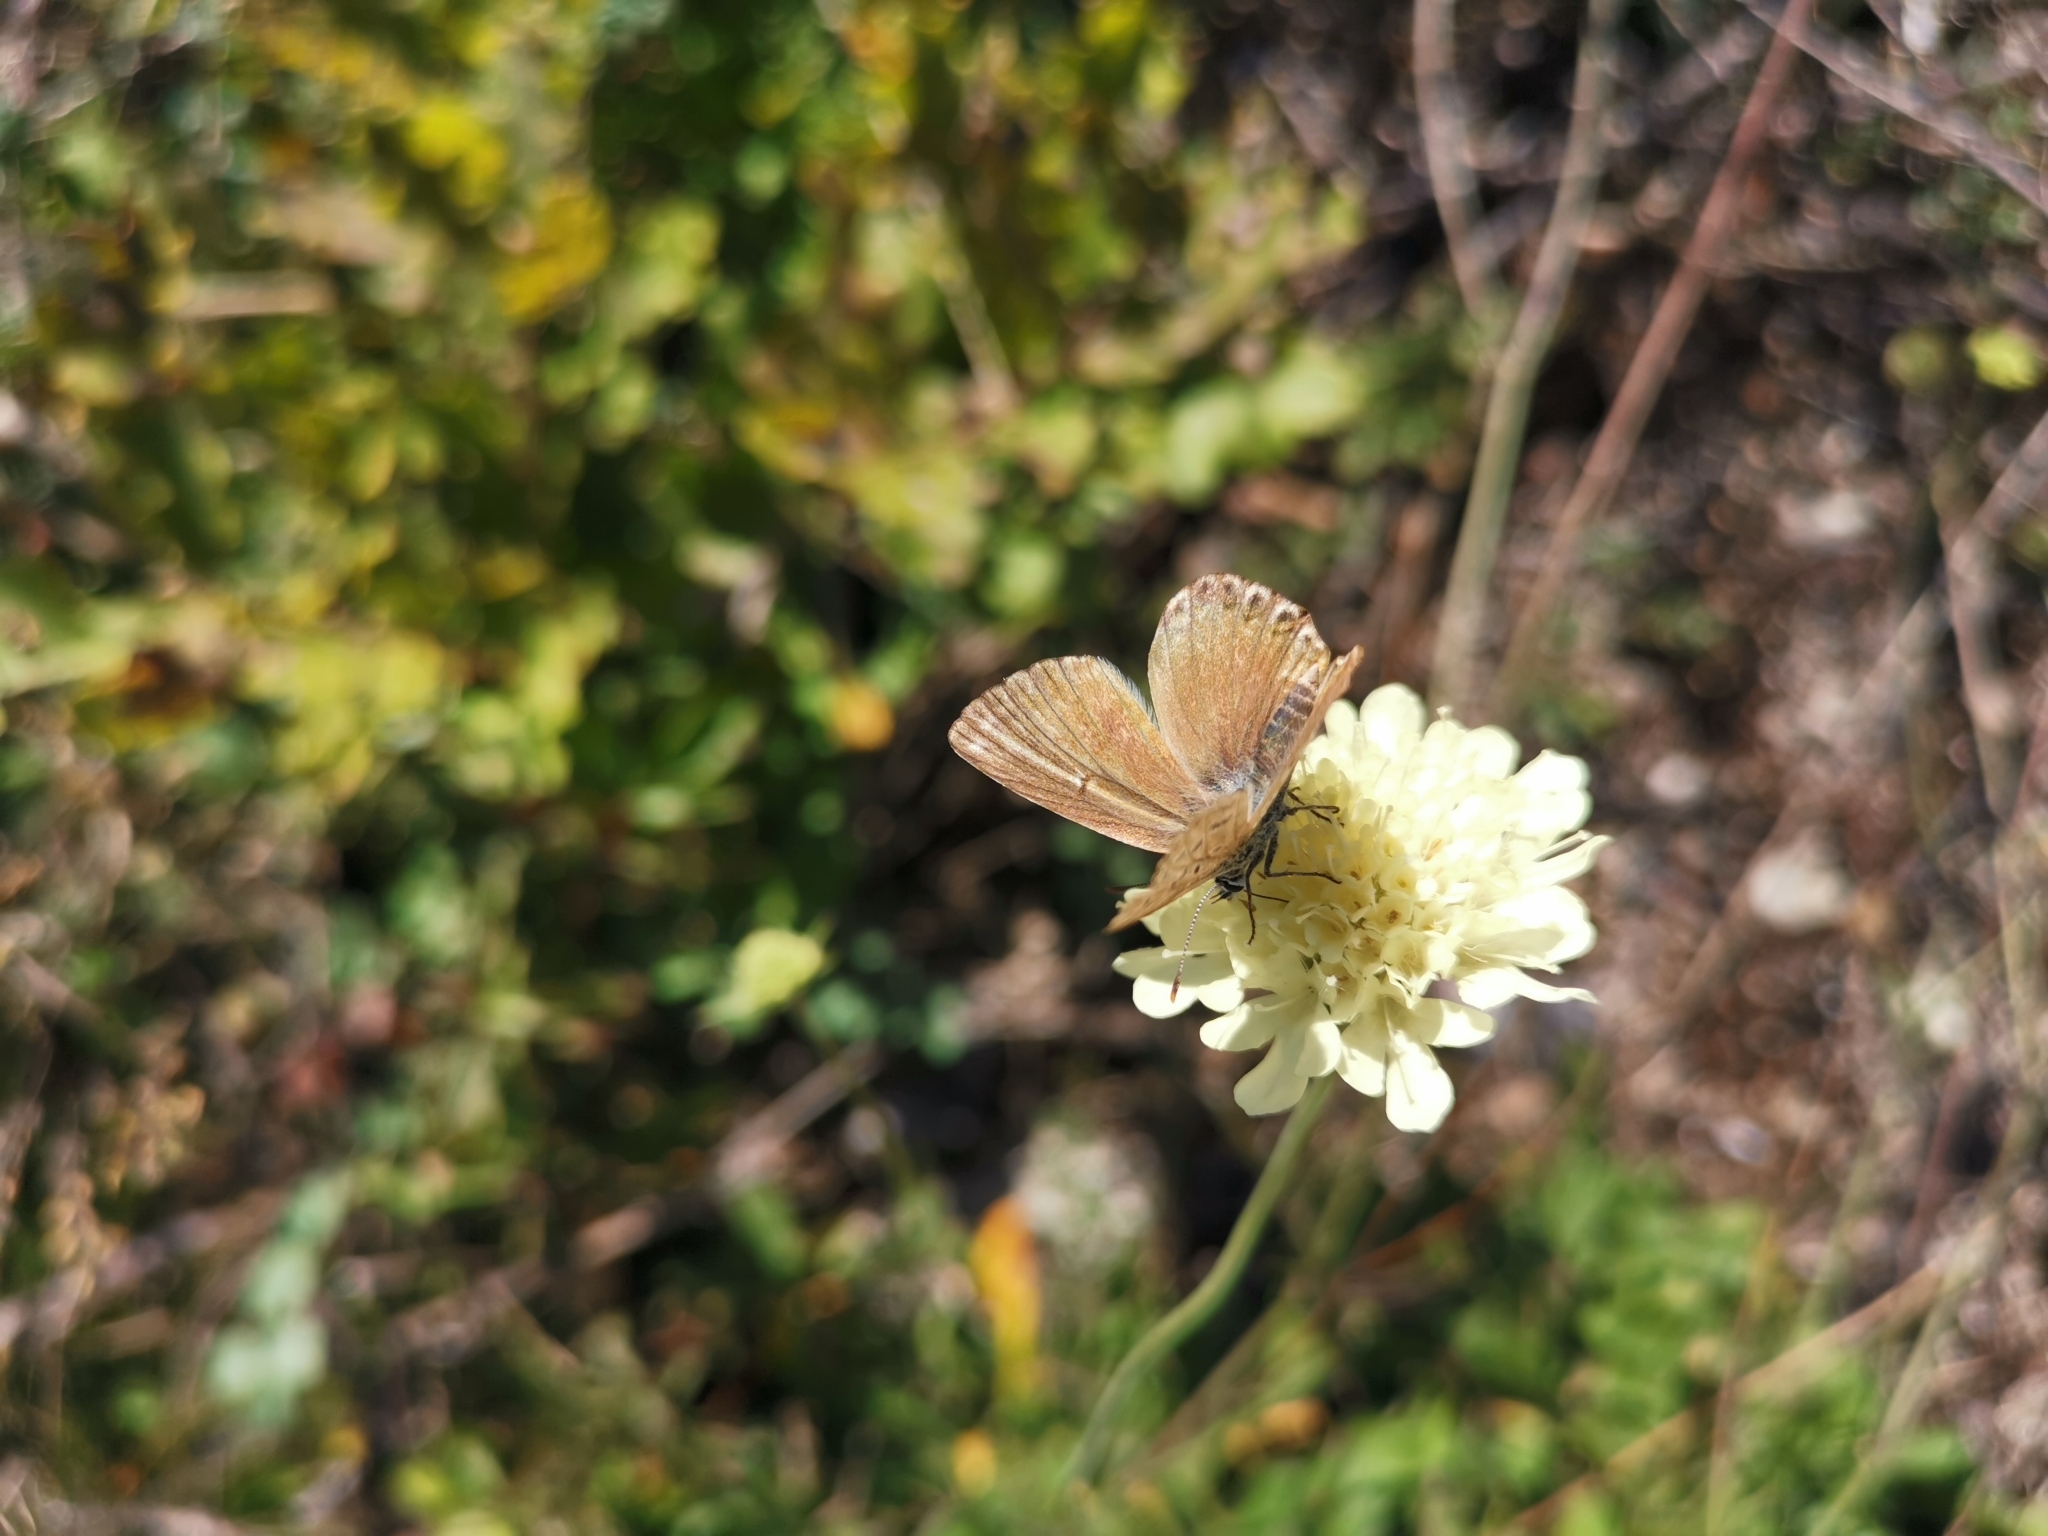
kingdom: Animalia
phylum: Arthropoda
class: Insecta
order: Lepidoptera
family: Lycaenidae
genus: Lysandra
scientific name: Lysandra coridon
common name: Chalkhill blue
